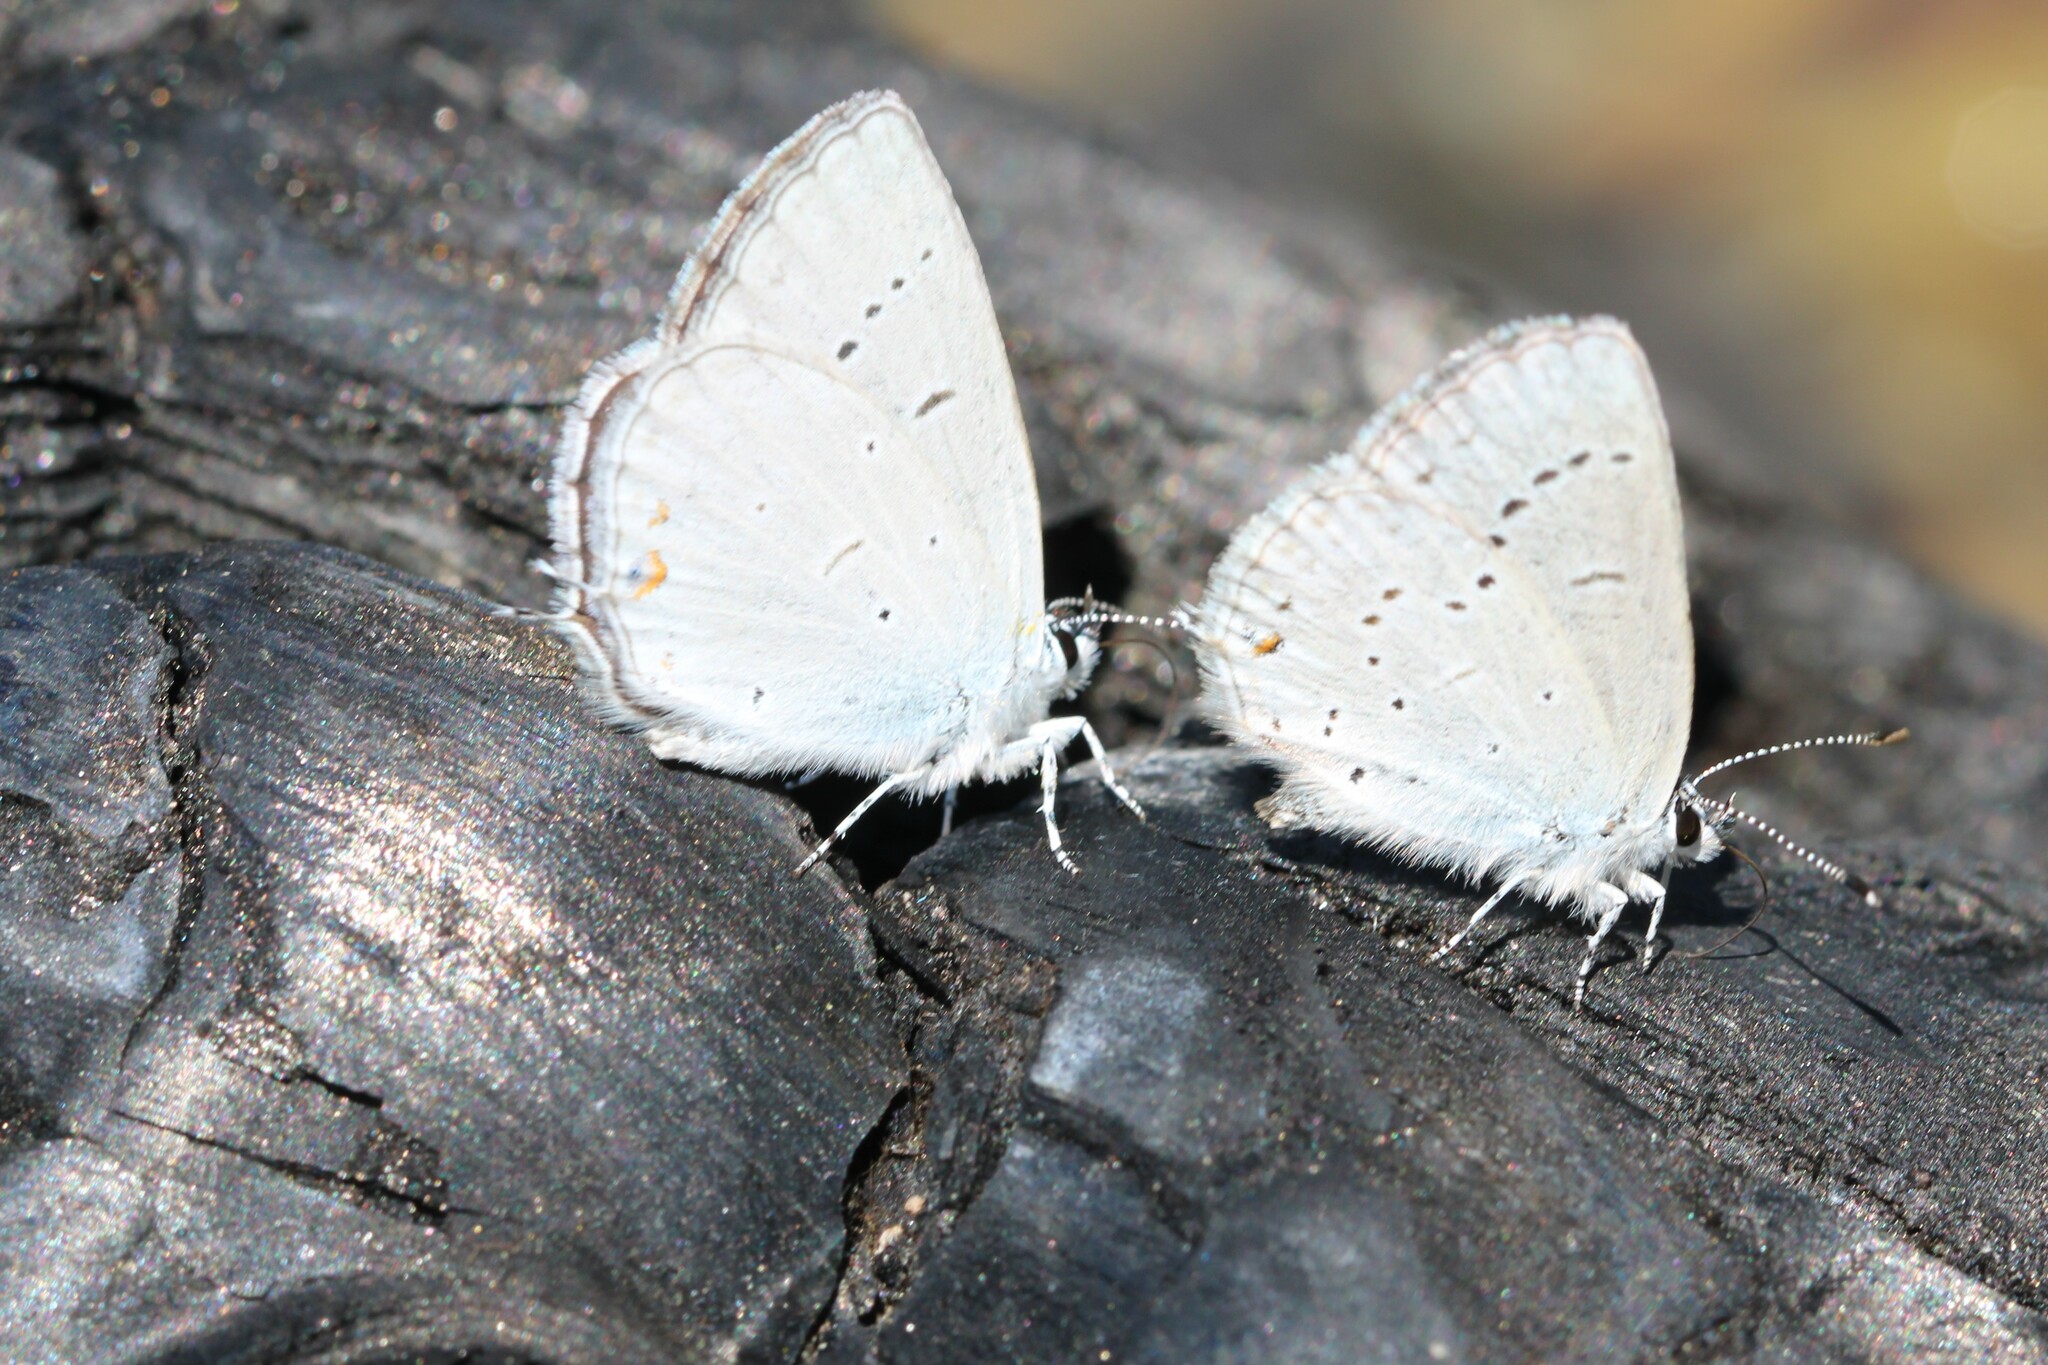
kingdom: Animalia
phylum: Arthropoda
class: Insecta
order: Lepidoptera
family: Lycaenidae
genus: Elkalyce
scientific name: Elkalyce amyntula
